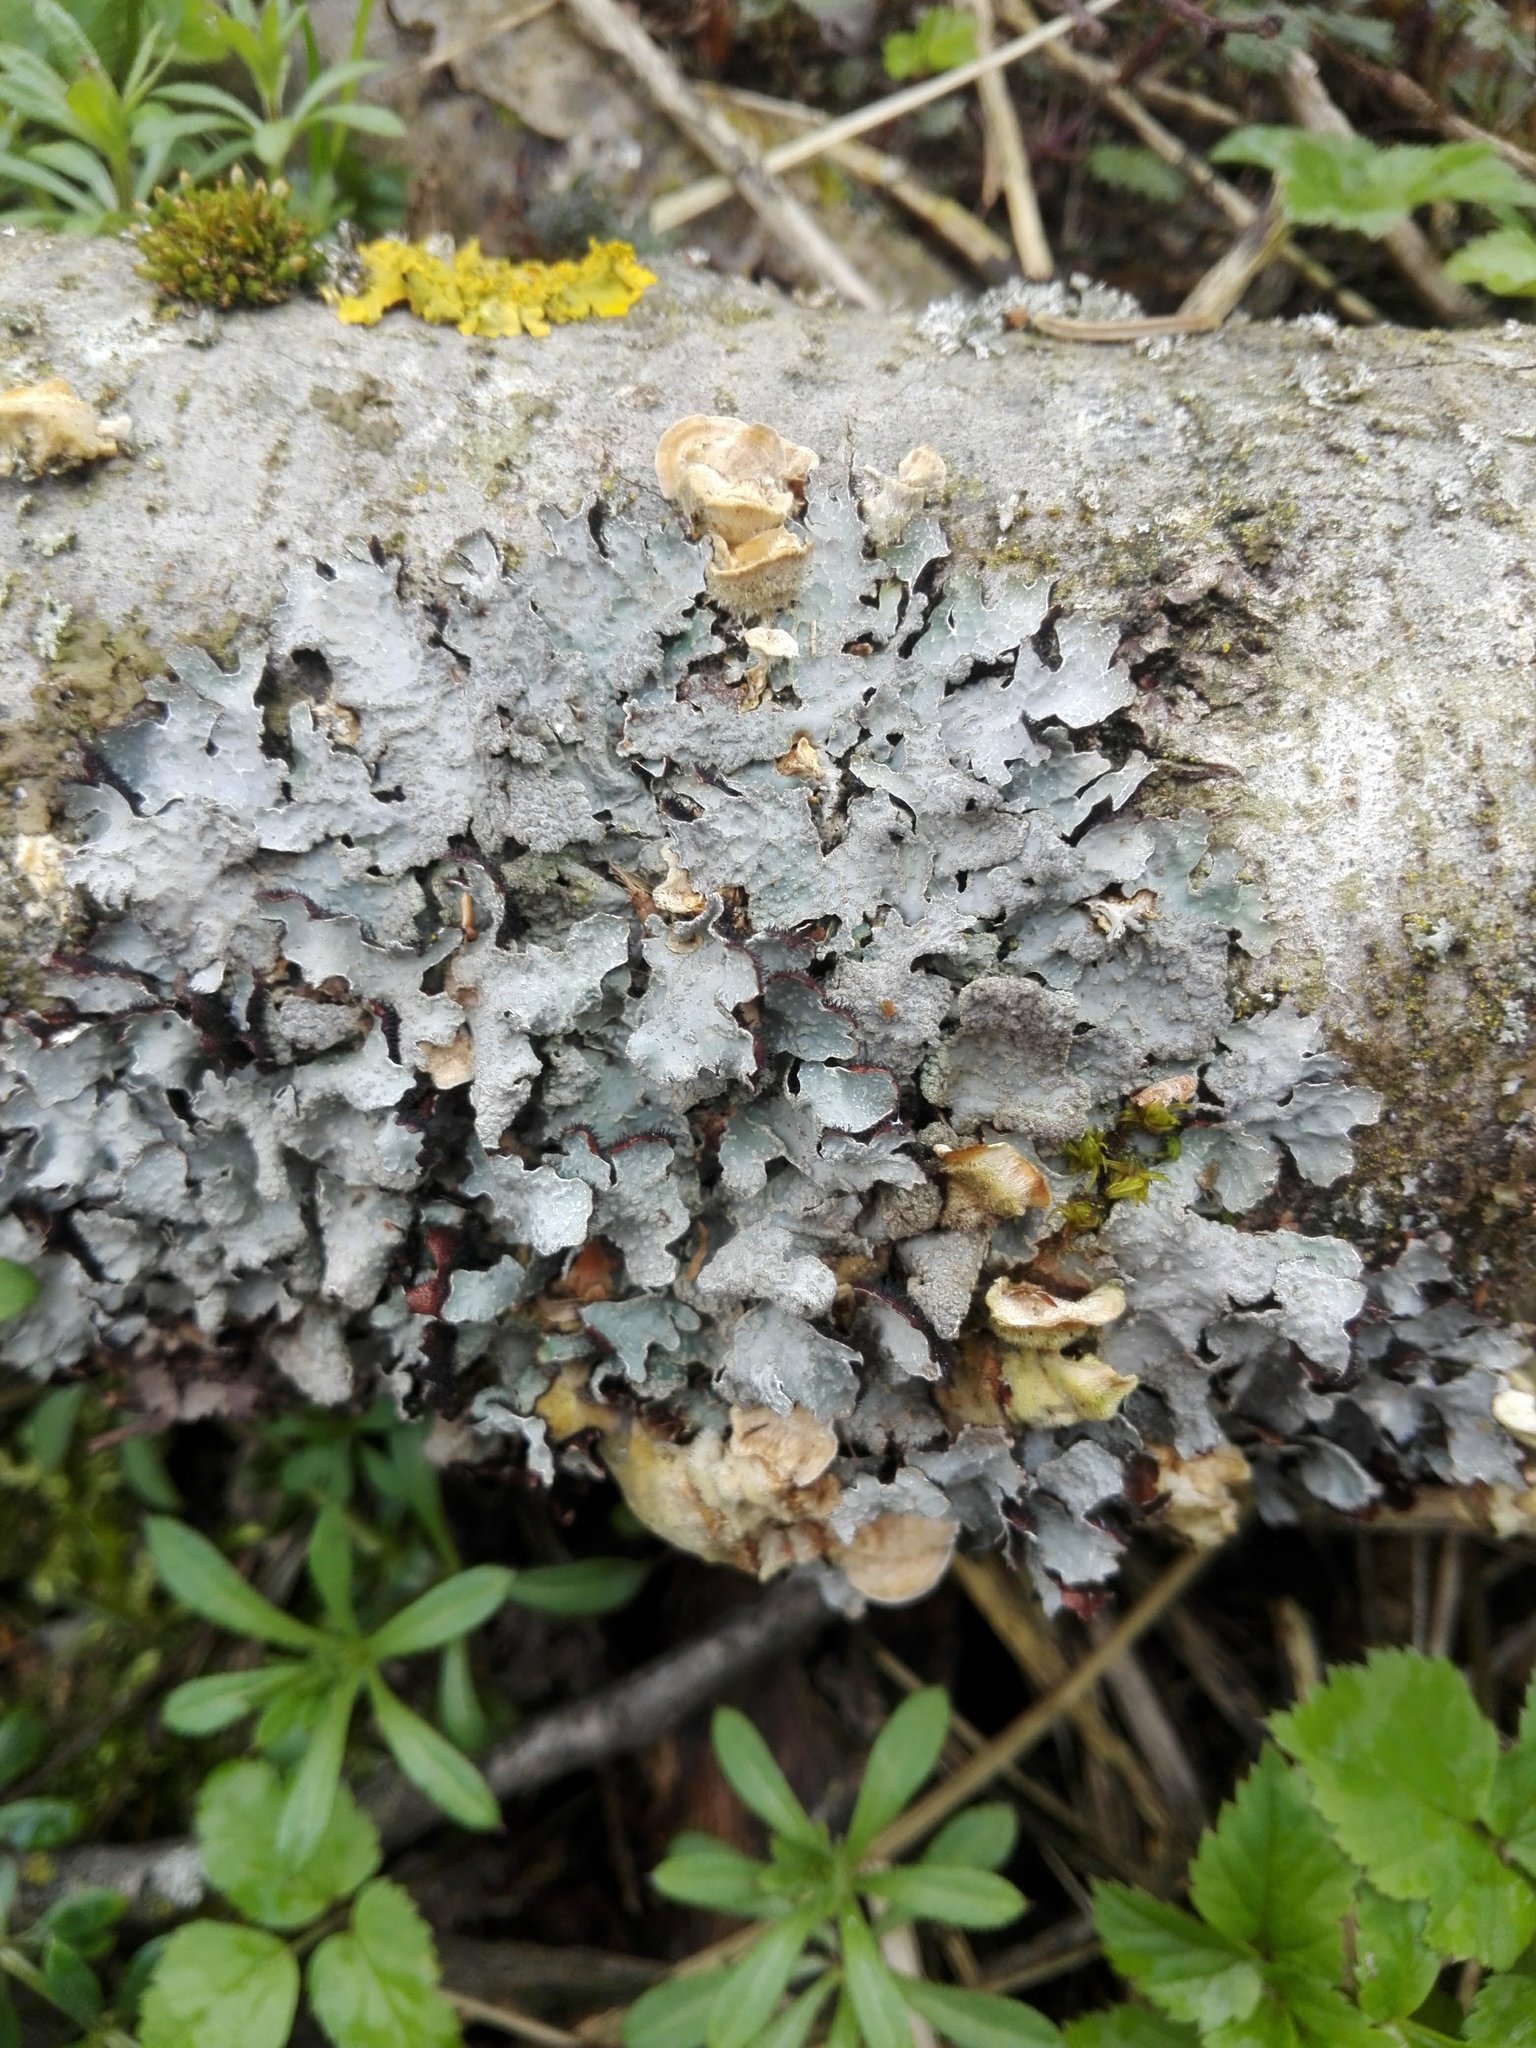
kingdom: Fungi
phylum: Ascomycota
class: Lecanoromycetes
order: Lecanorales
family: Parmeliaceae
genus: Parmelia
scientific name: Parmelia sulcata
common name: Netted shield lichen
